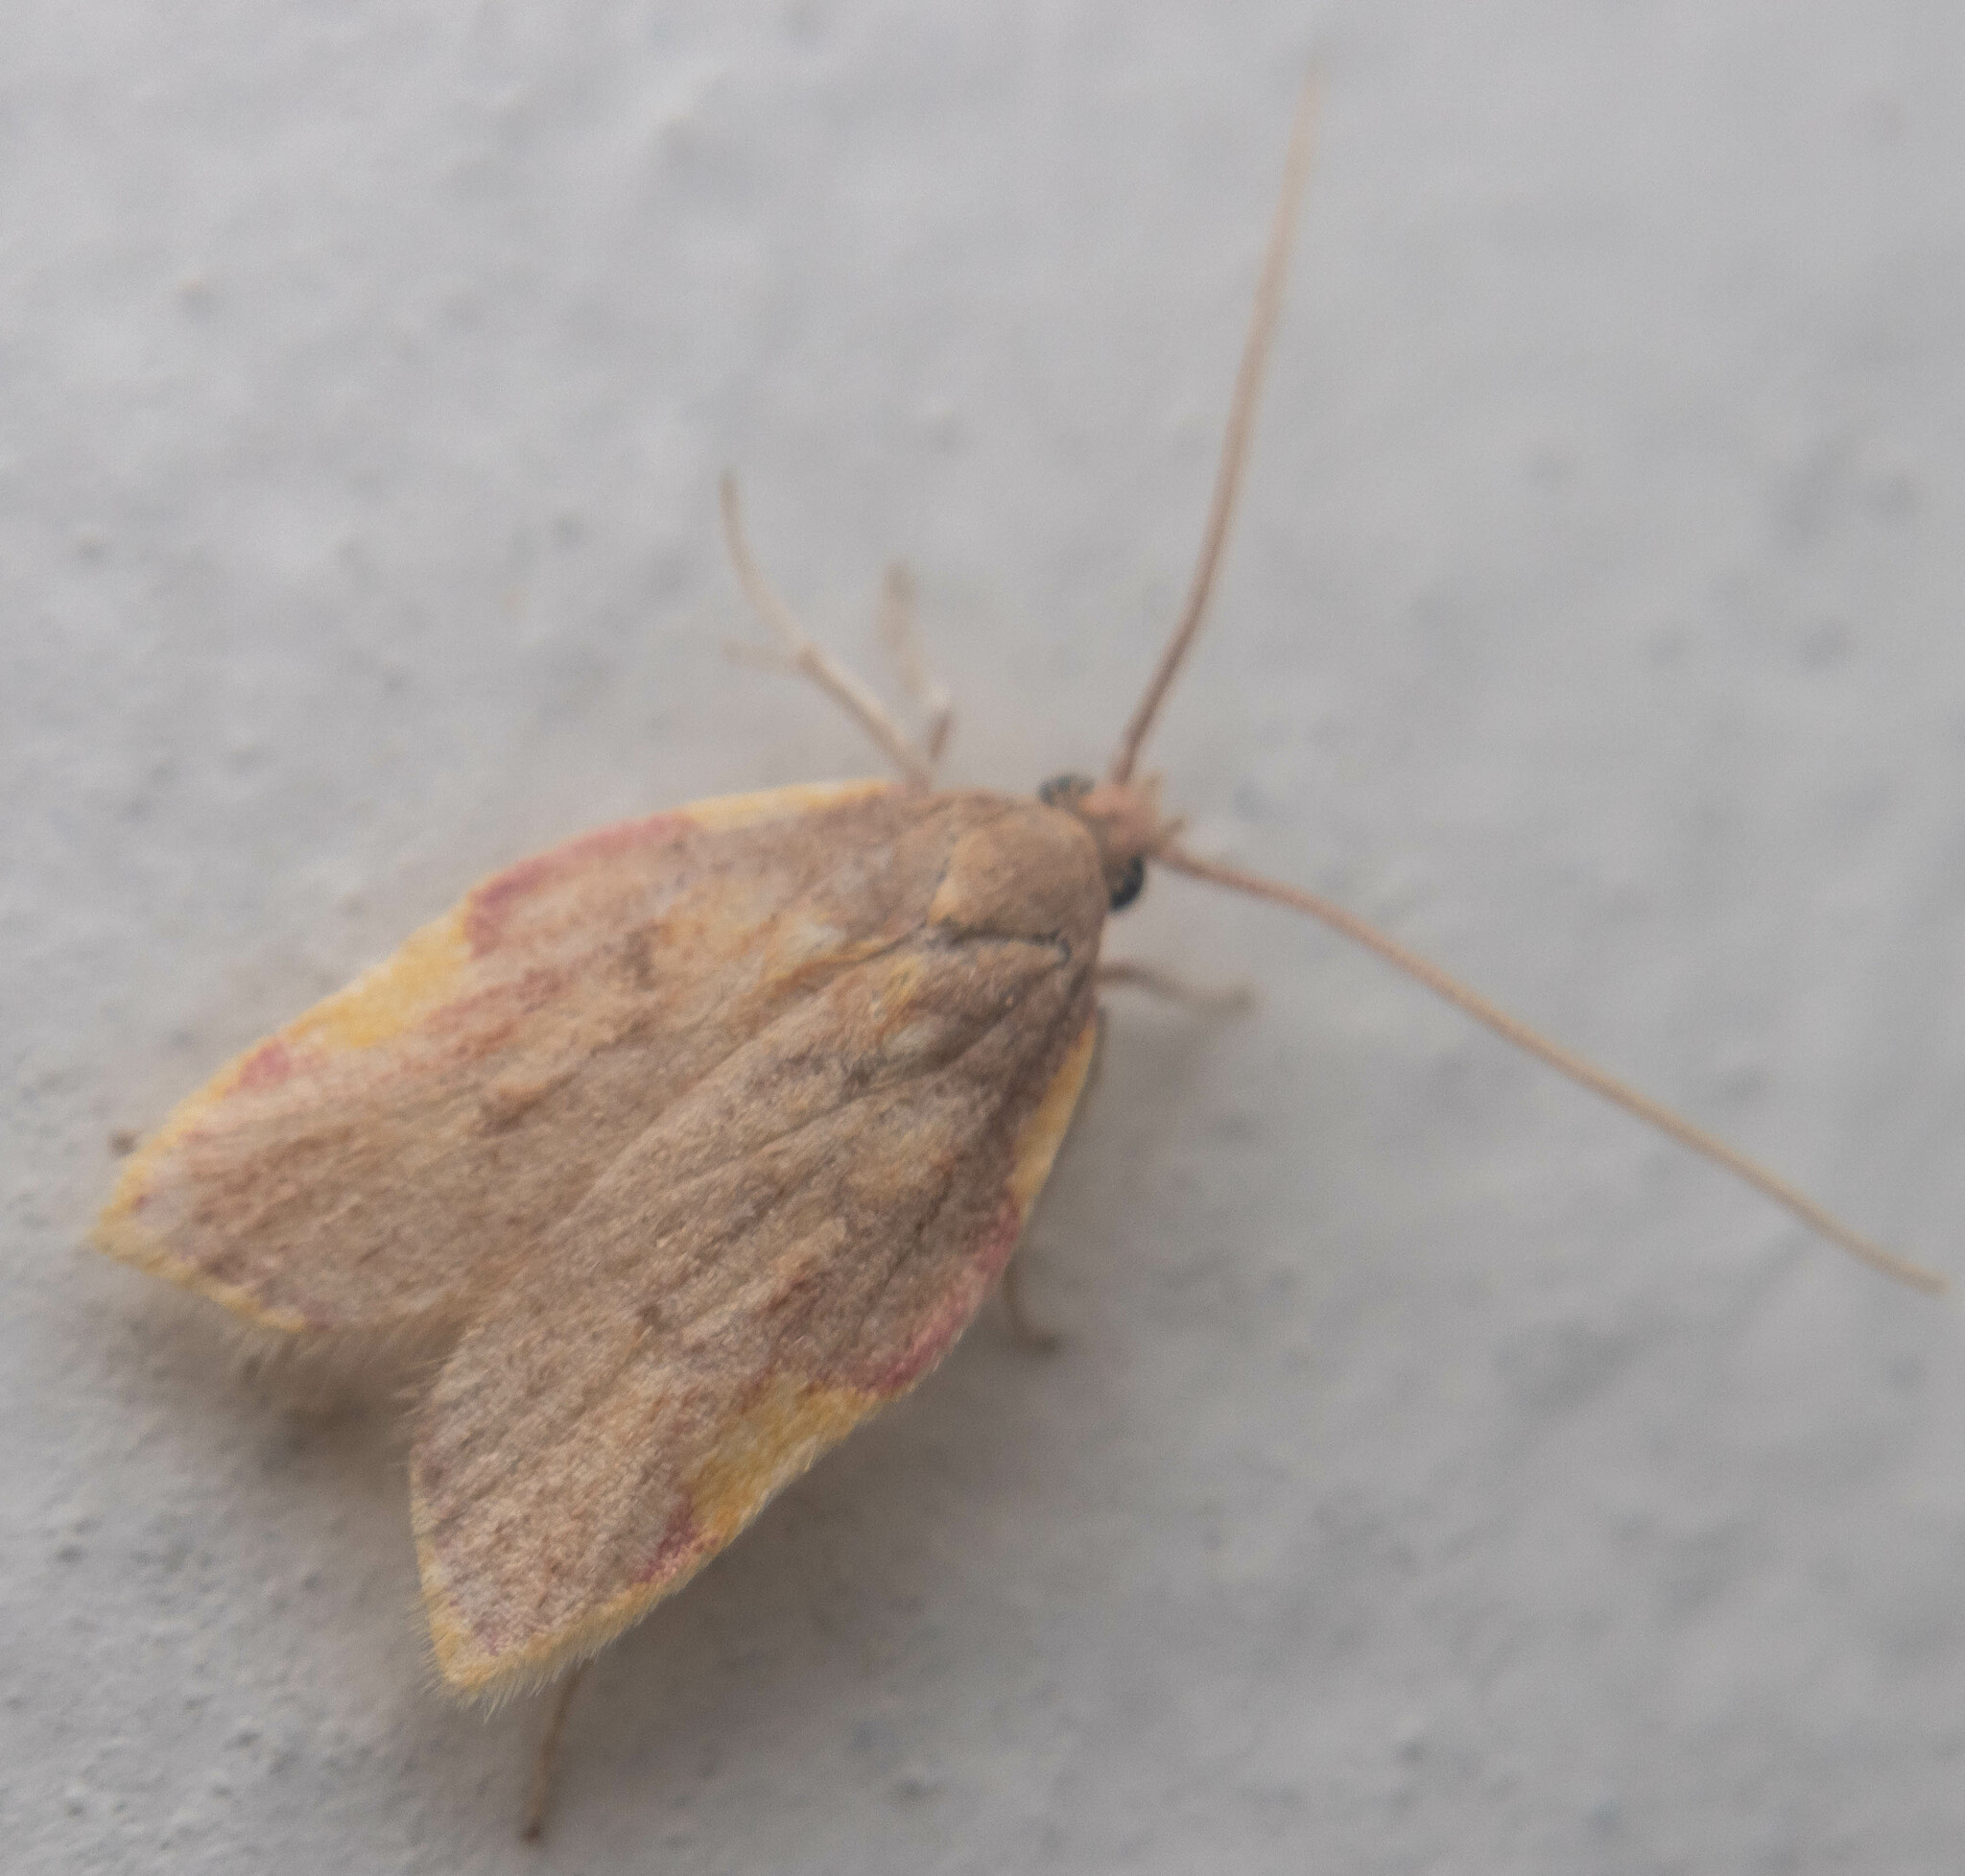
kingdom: Animalia
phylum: Arthropoda
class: Insecta
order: Lepidoptera
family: Peleopodidae
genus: Carcina
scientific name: Carcina quercana
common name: Moth
